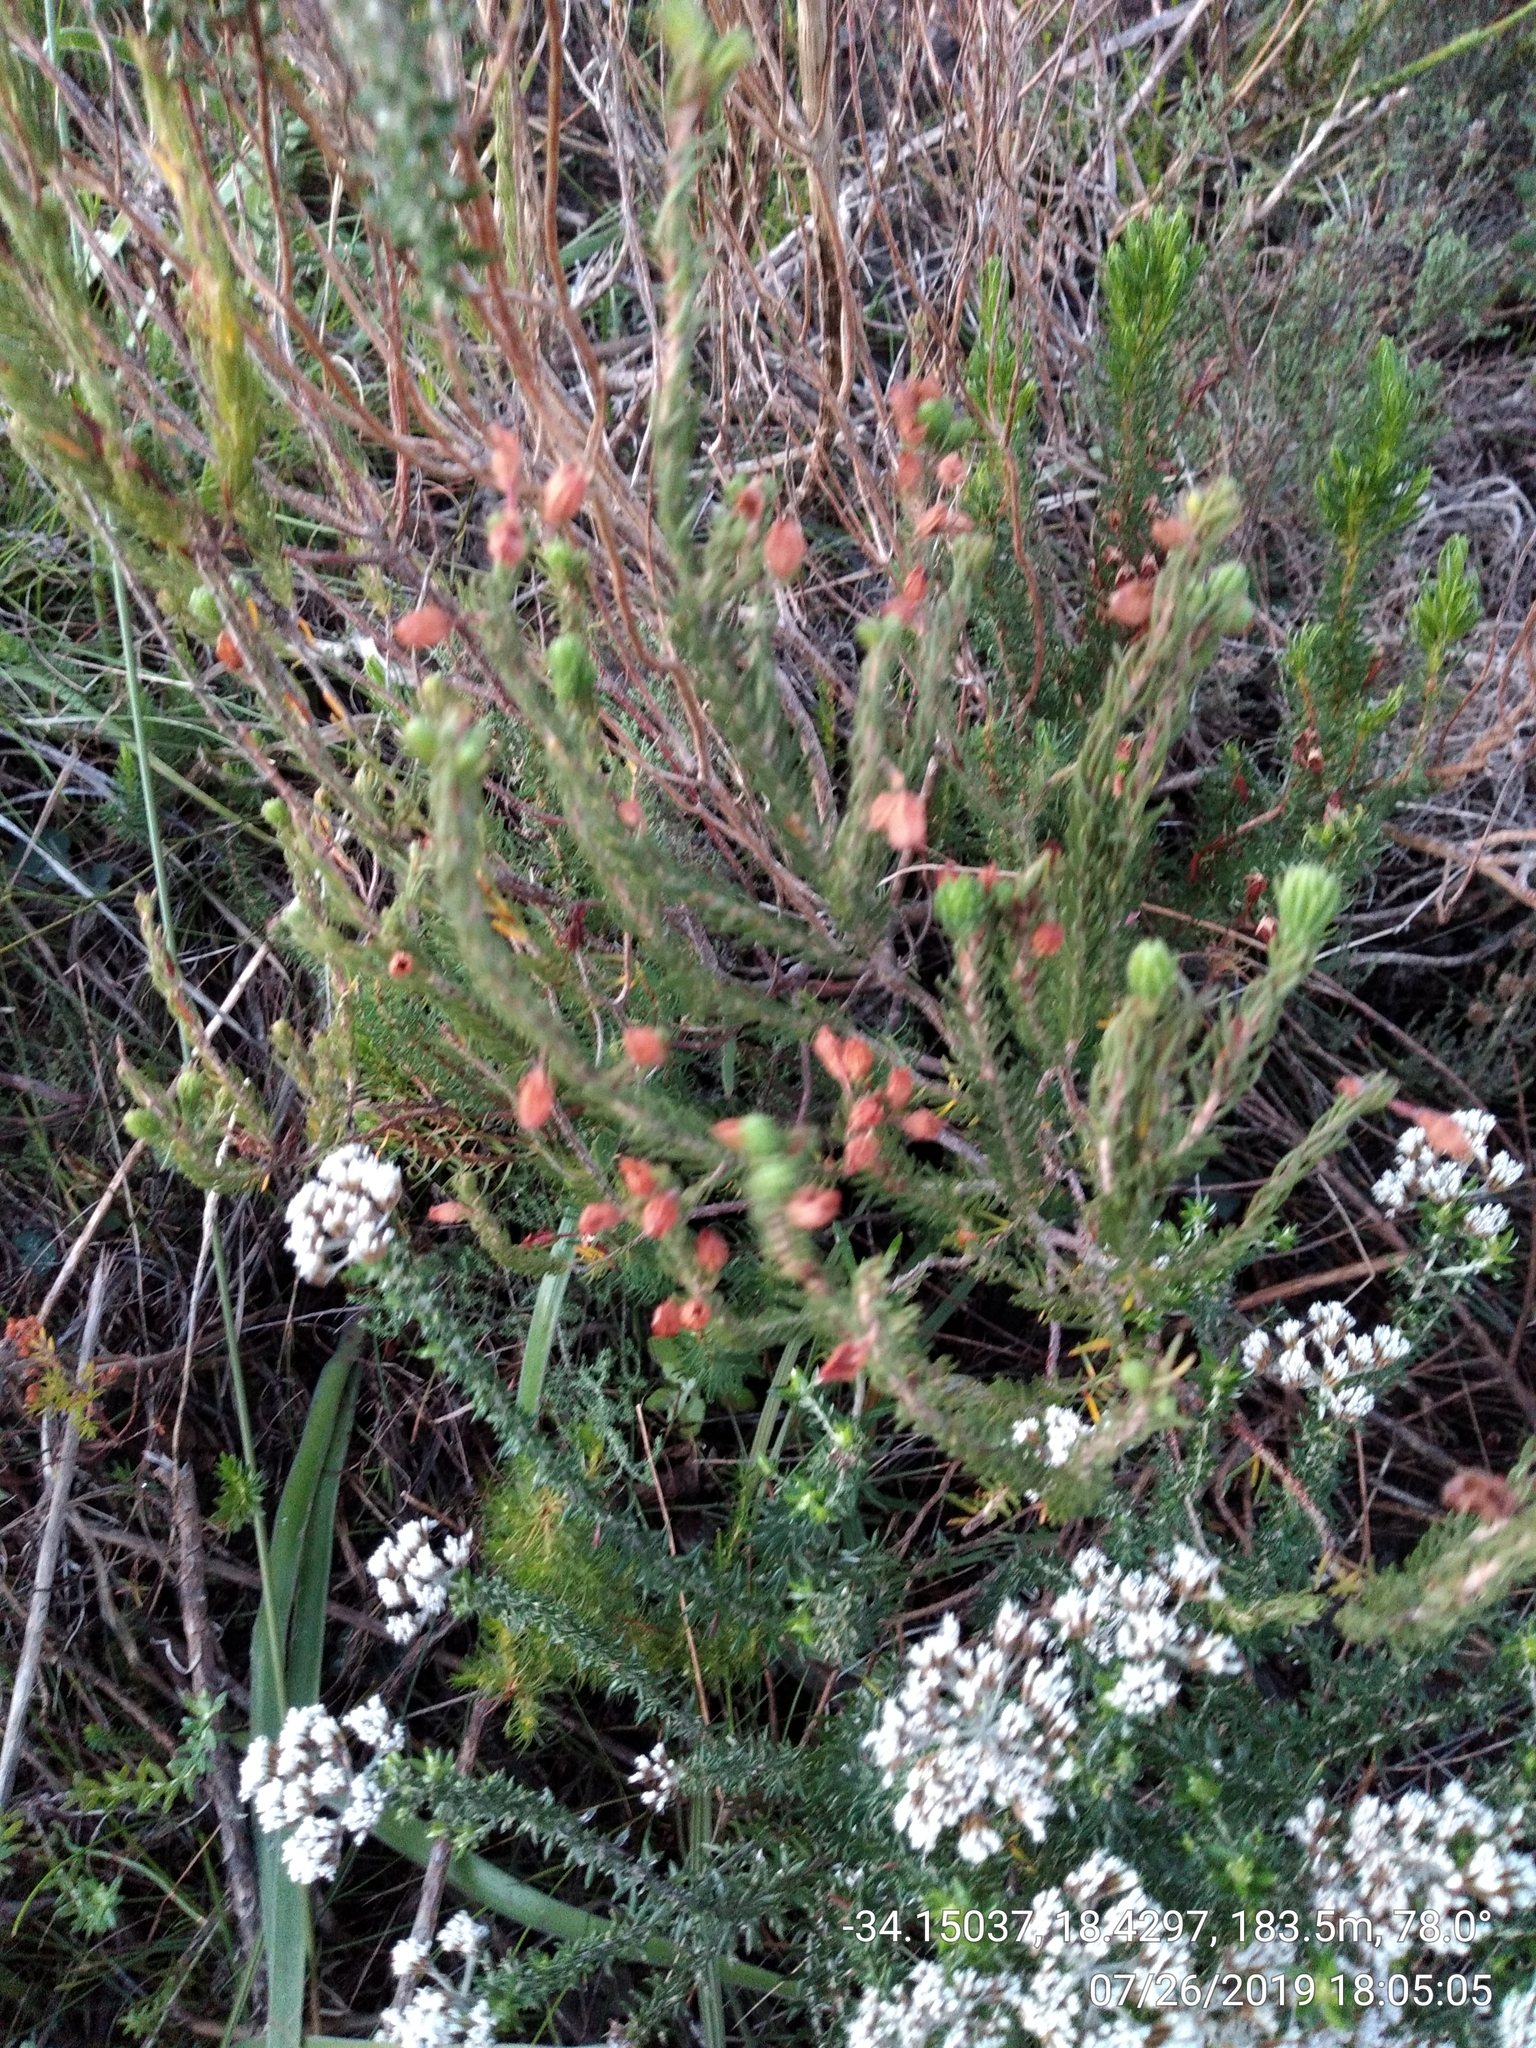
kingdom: Plantae
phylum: Tracheophyta
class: Magnoliopsida
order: Ericales
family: Ericaceae
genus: Erica
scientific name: Erica viscaria
